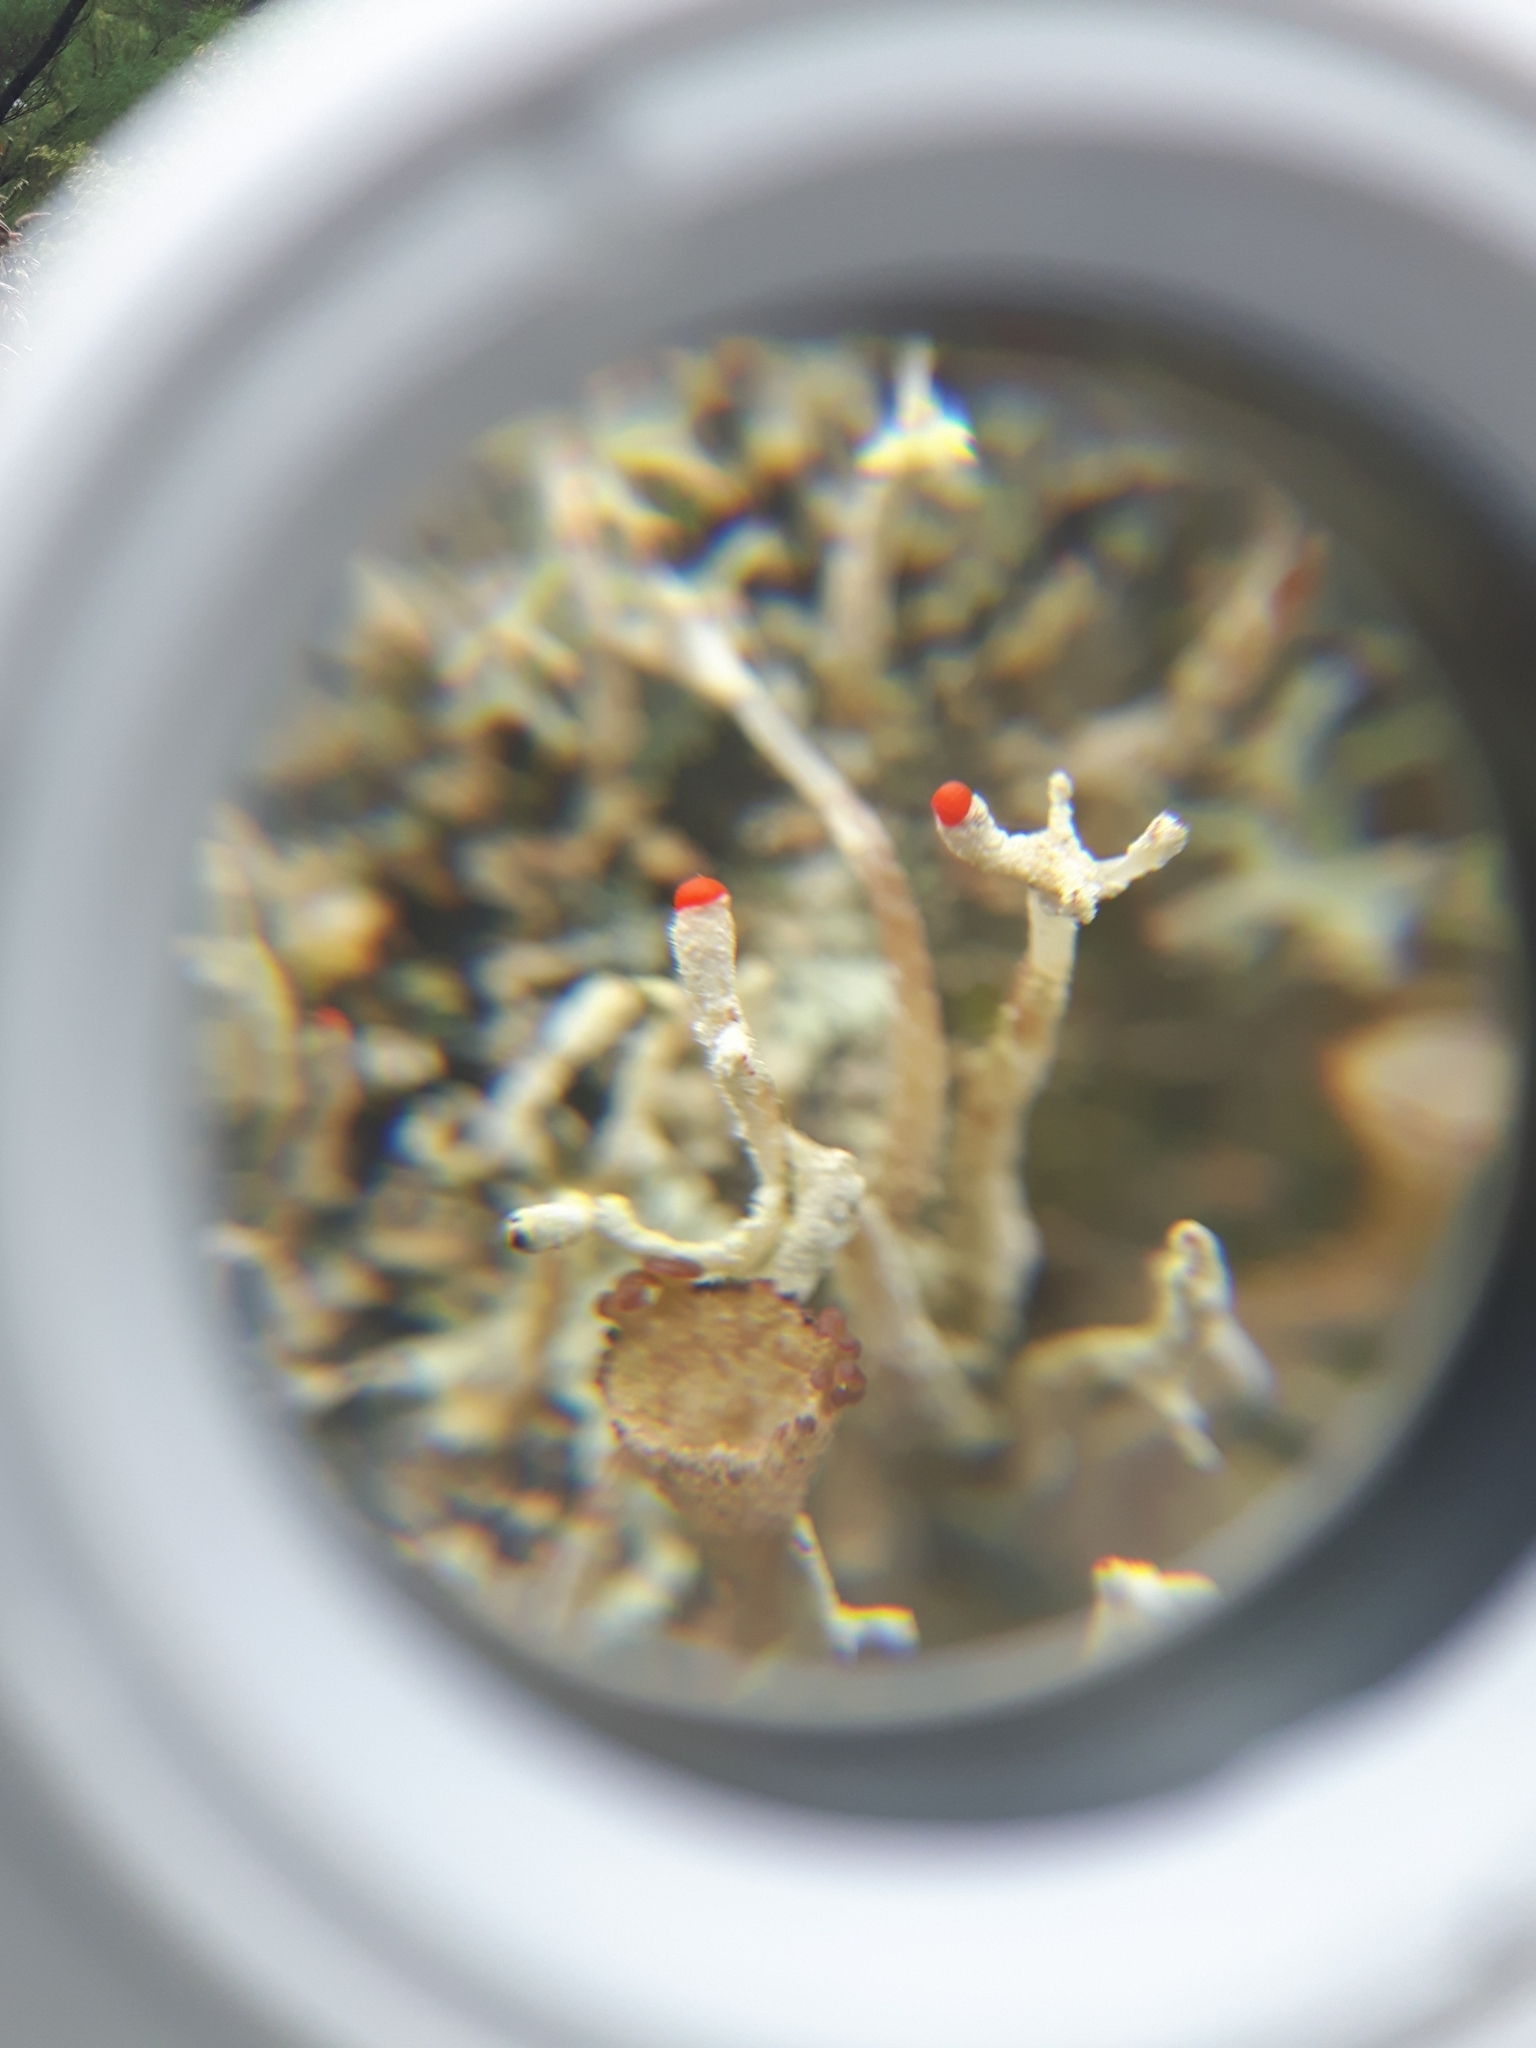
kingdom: Fungi
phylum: Ascomycota
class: Lecanoromycetes
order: Lecanorales
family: Cladoniaceae
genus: Cladonia
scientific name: Cladonia macilenta
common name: Lipstick powderhorn
